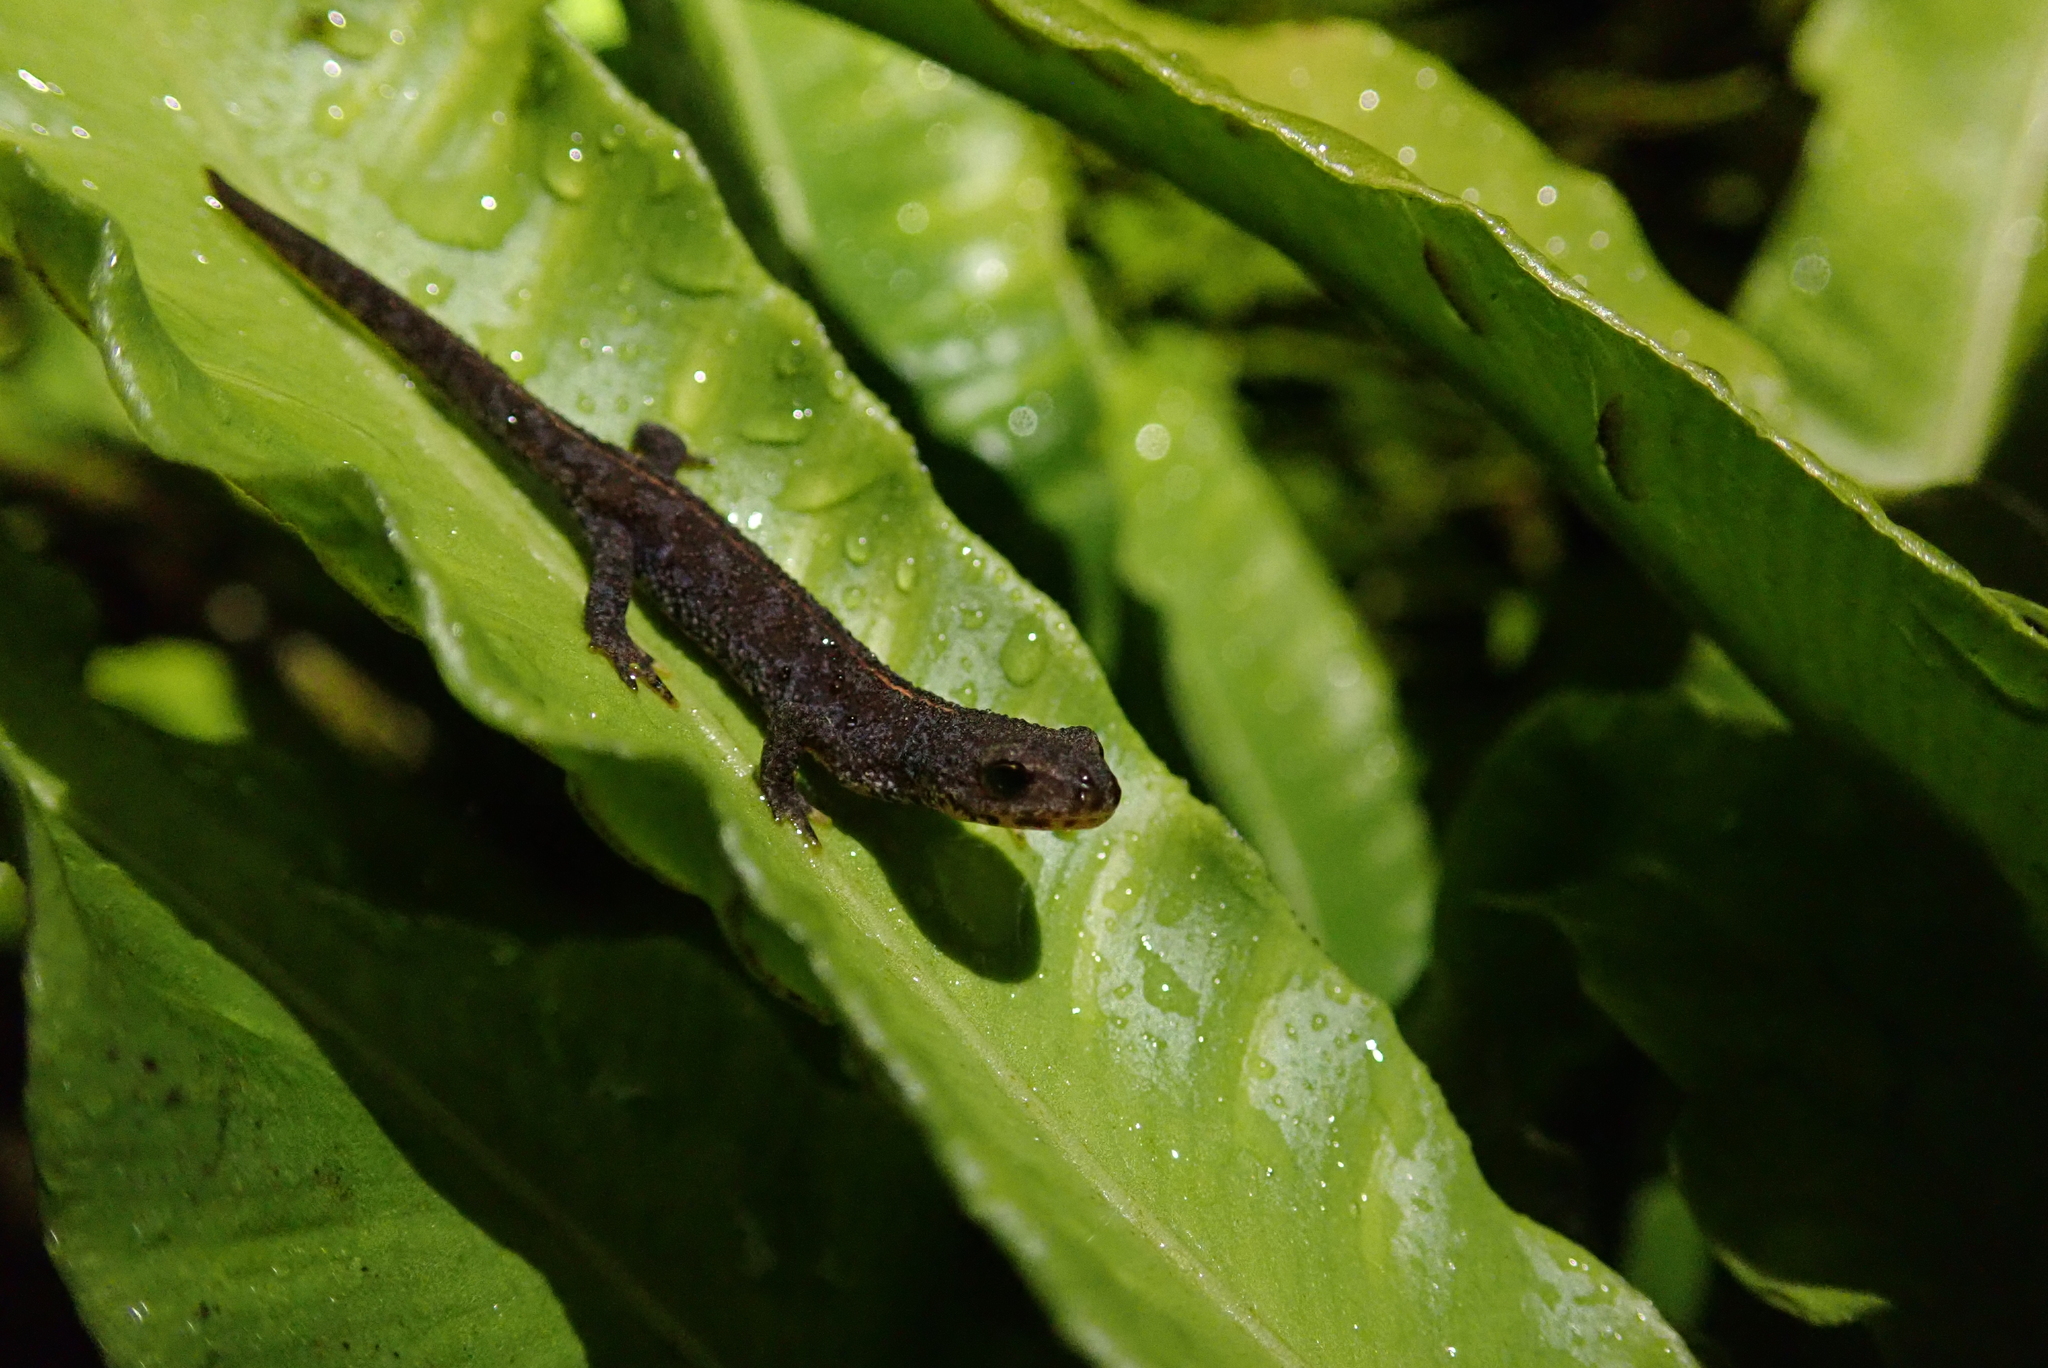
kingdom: Animalia
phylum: Chordata
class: Amphibia
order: Caudata
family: Salamandridae
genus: Ichthyosaura
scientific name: Ichthyosaura alpestris
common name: Alpine newt
